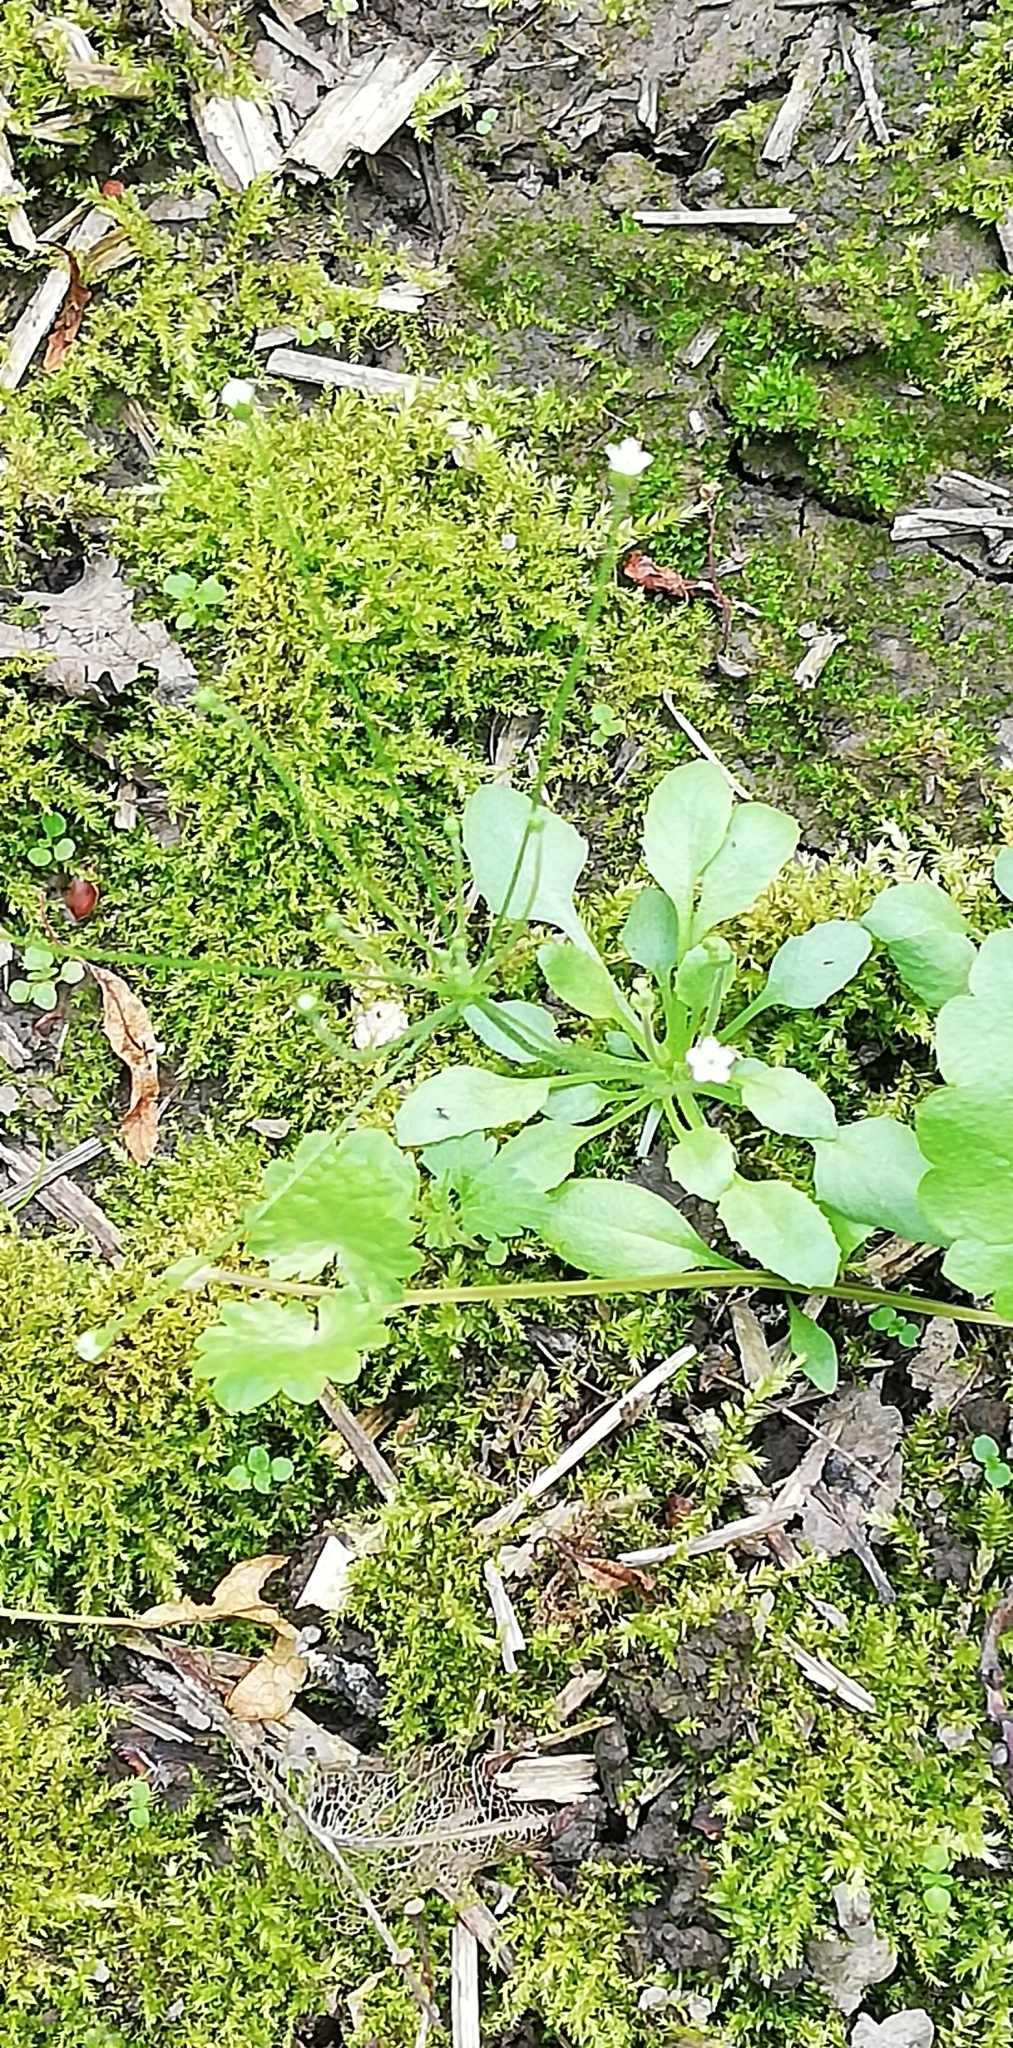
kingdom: Plantae
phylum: Tracheophyta
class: Magnoliopsida
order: Ericales
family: Primulaceae
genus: Androsace
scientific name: Androsace filiformis
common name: Filiform rock jasmine
